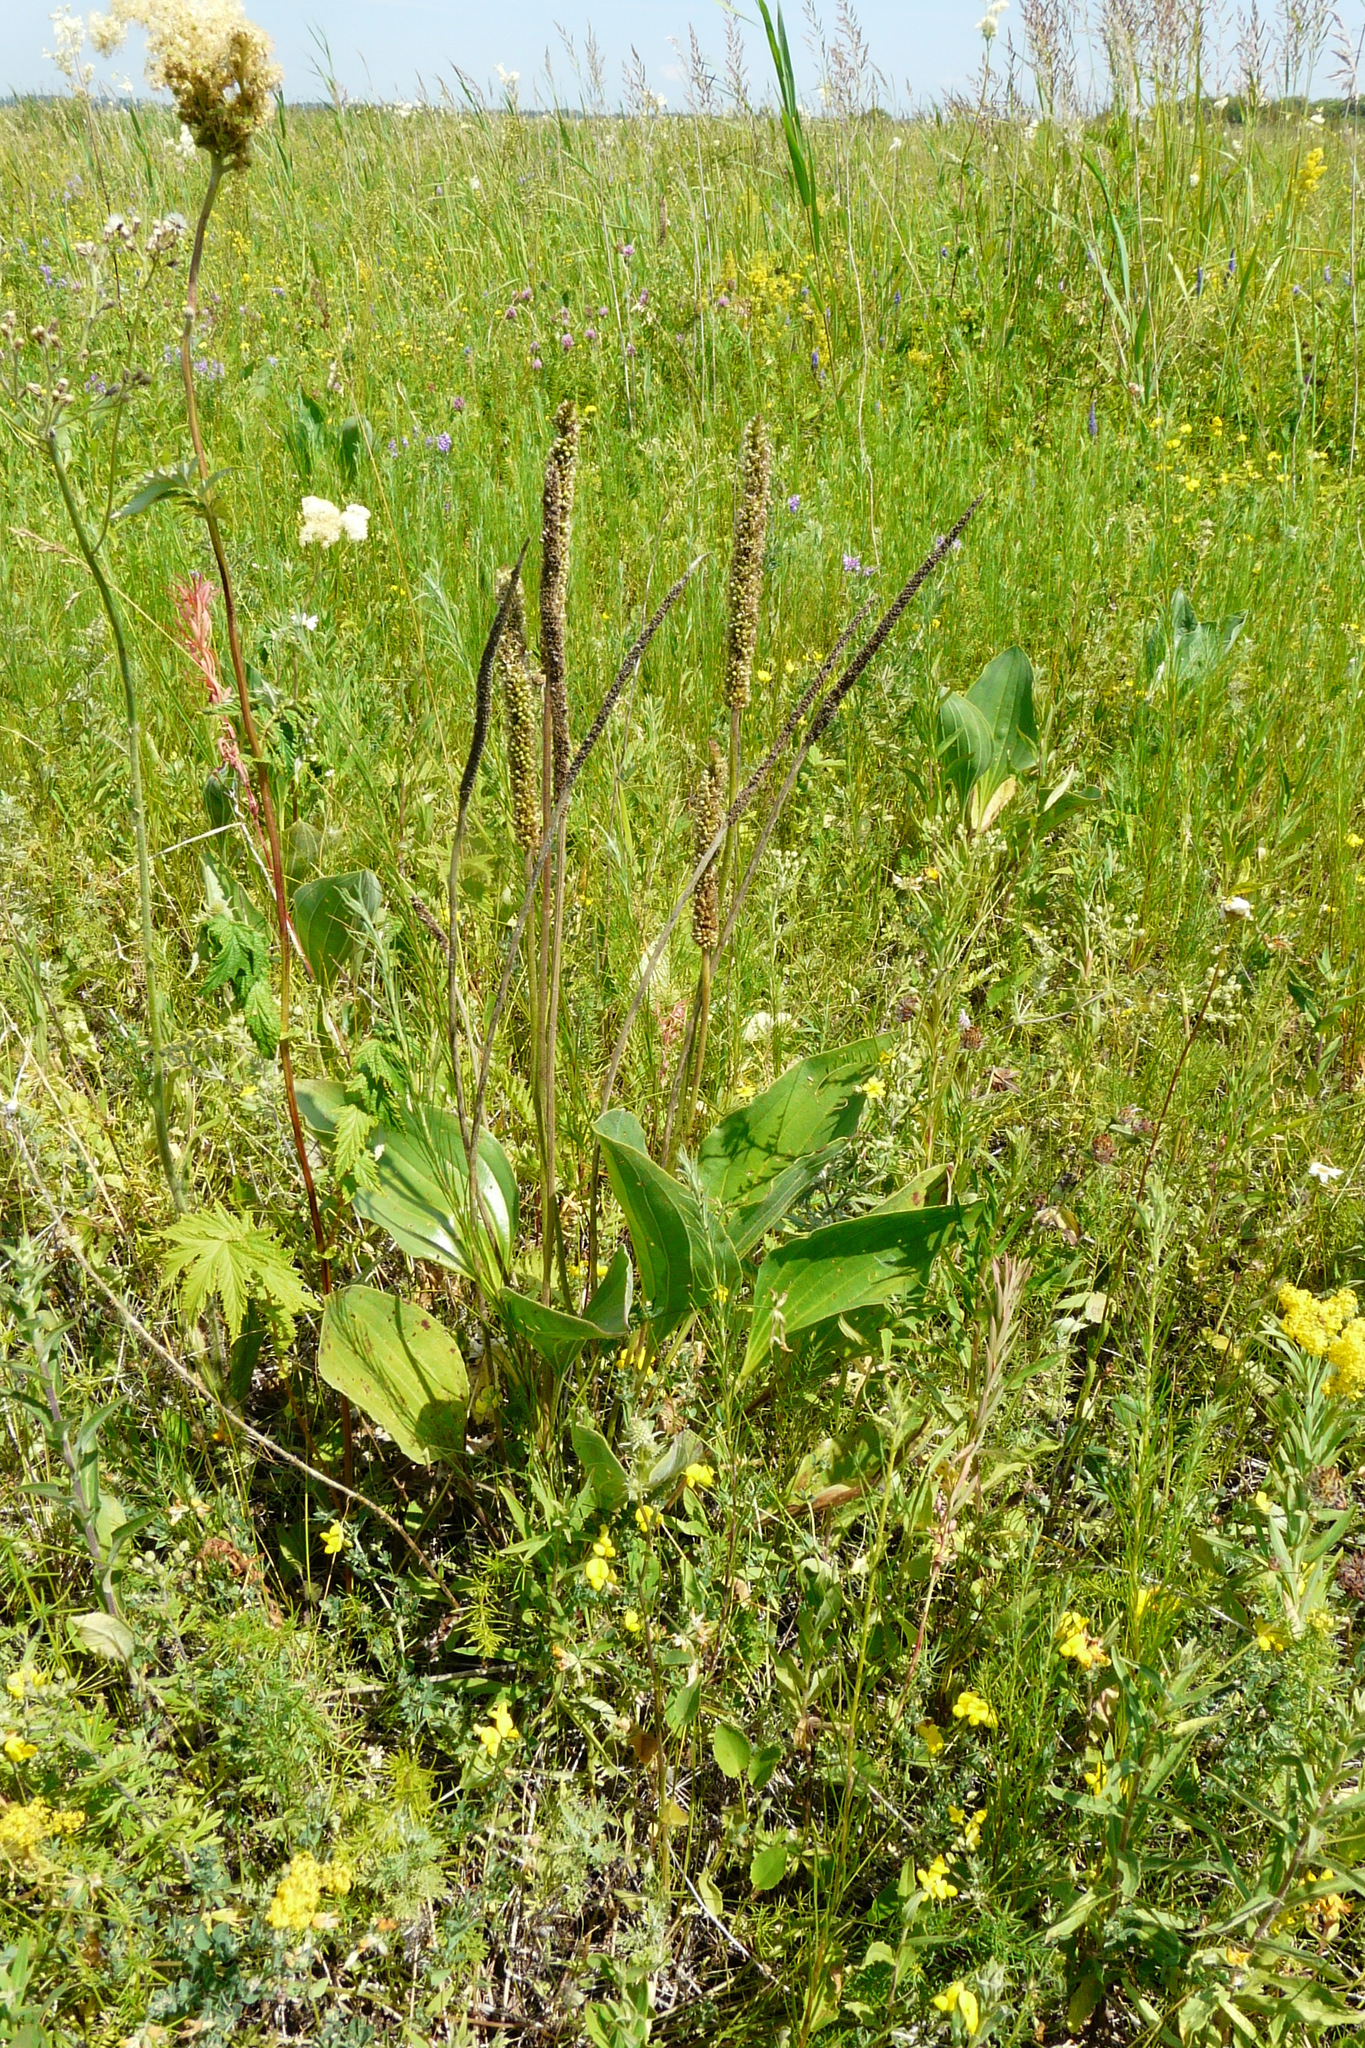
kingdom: Plantae
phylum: Tracheophyta
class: Magnoliopsida
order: Lamiales
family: Plantaginaceae
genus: Plantago
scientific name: Plantago maxima
